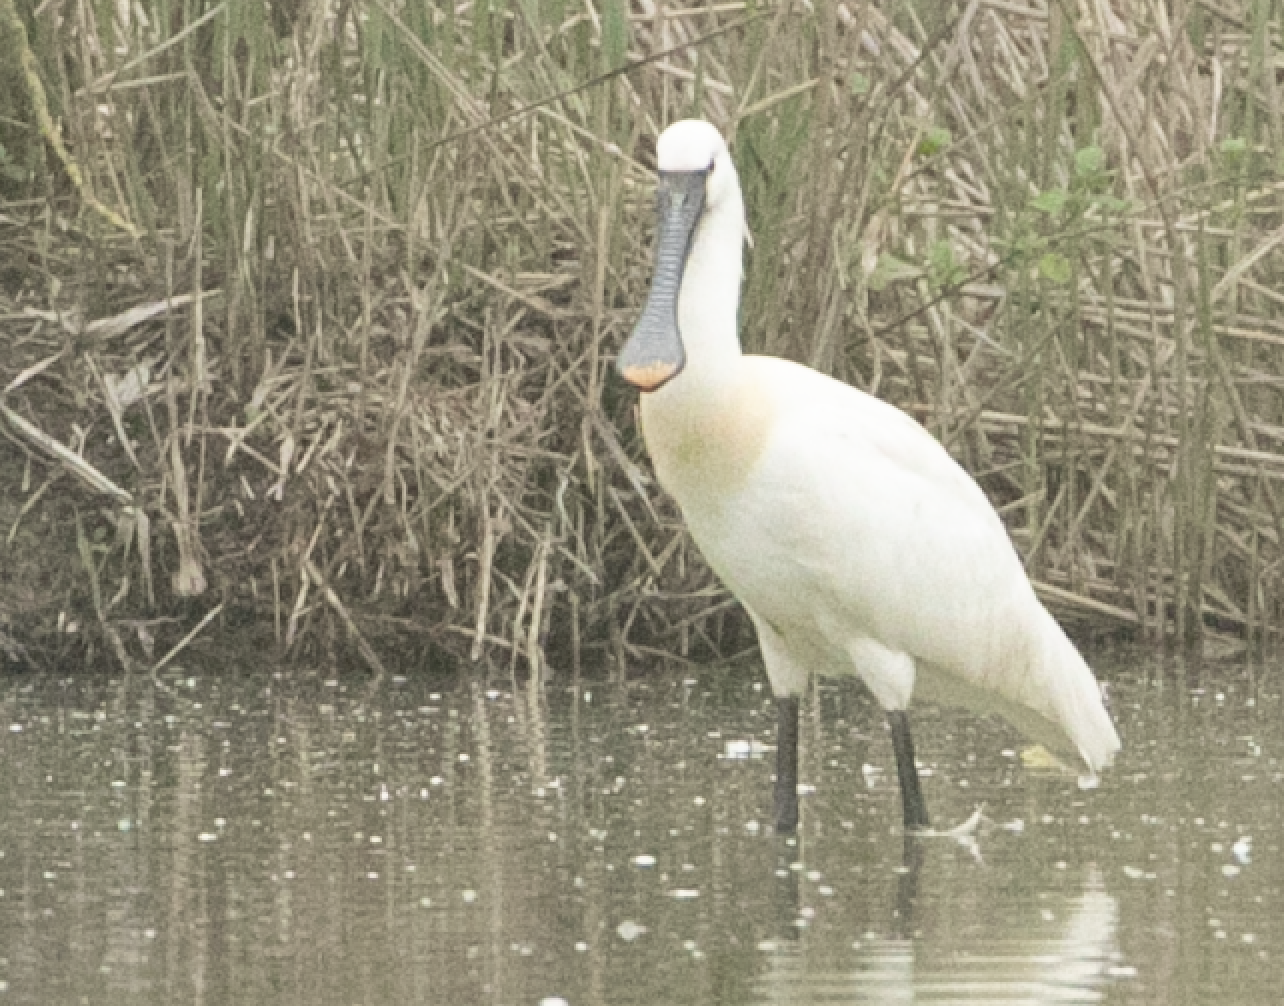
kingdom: Animalia
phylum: Chordata
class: Aves
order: Pelecaniformes
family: Threskiornithidae
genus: Platalea
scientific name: Platalea leucorodia
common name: Eurasian spoonbill
